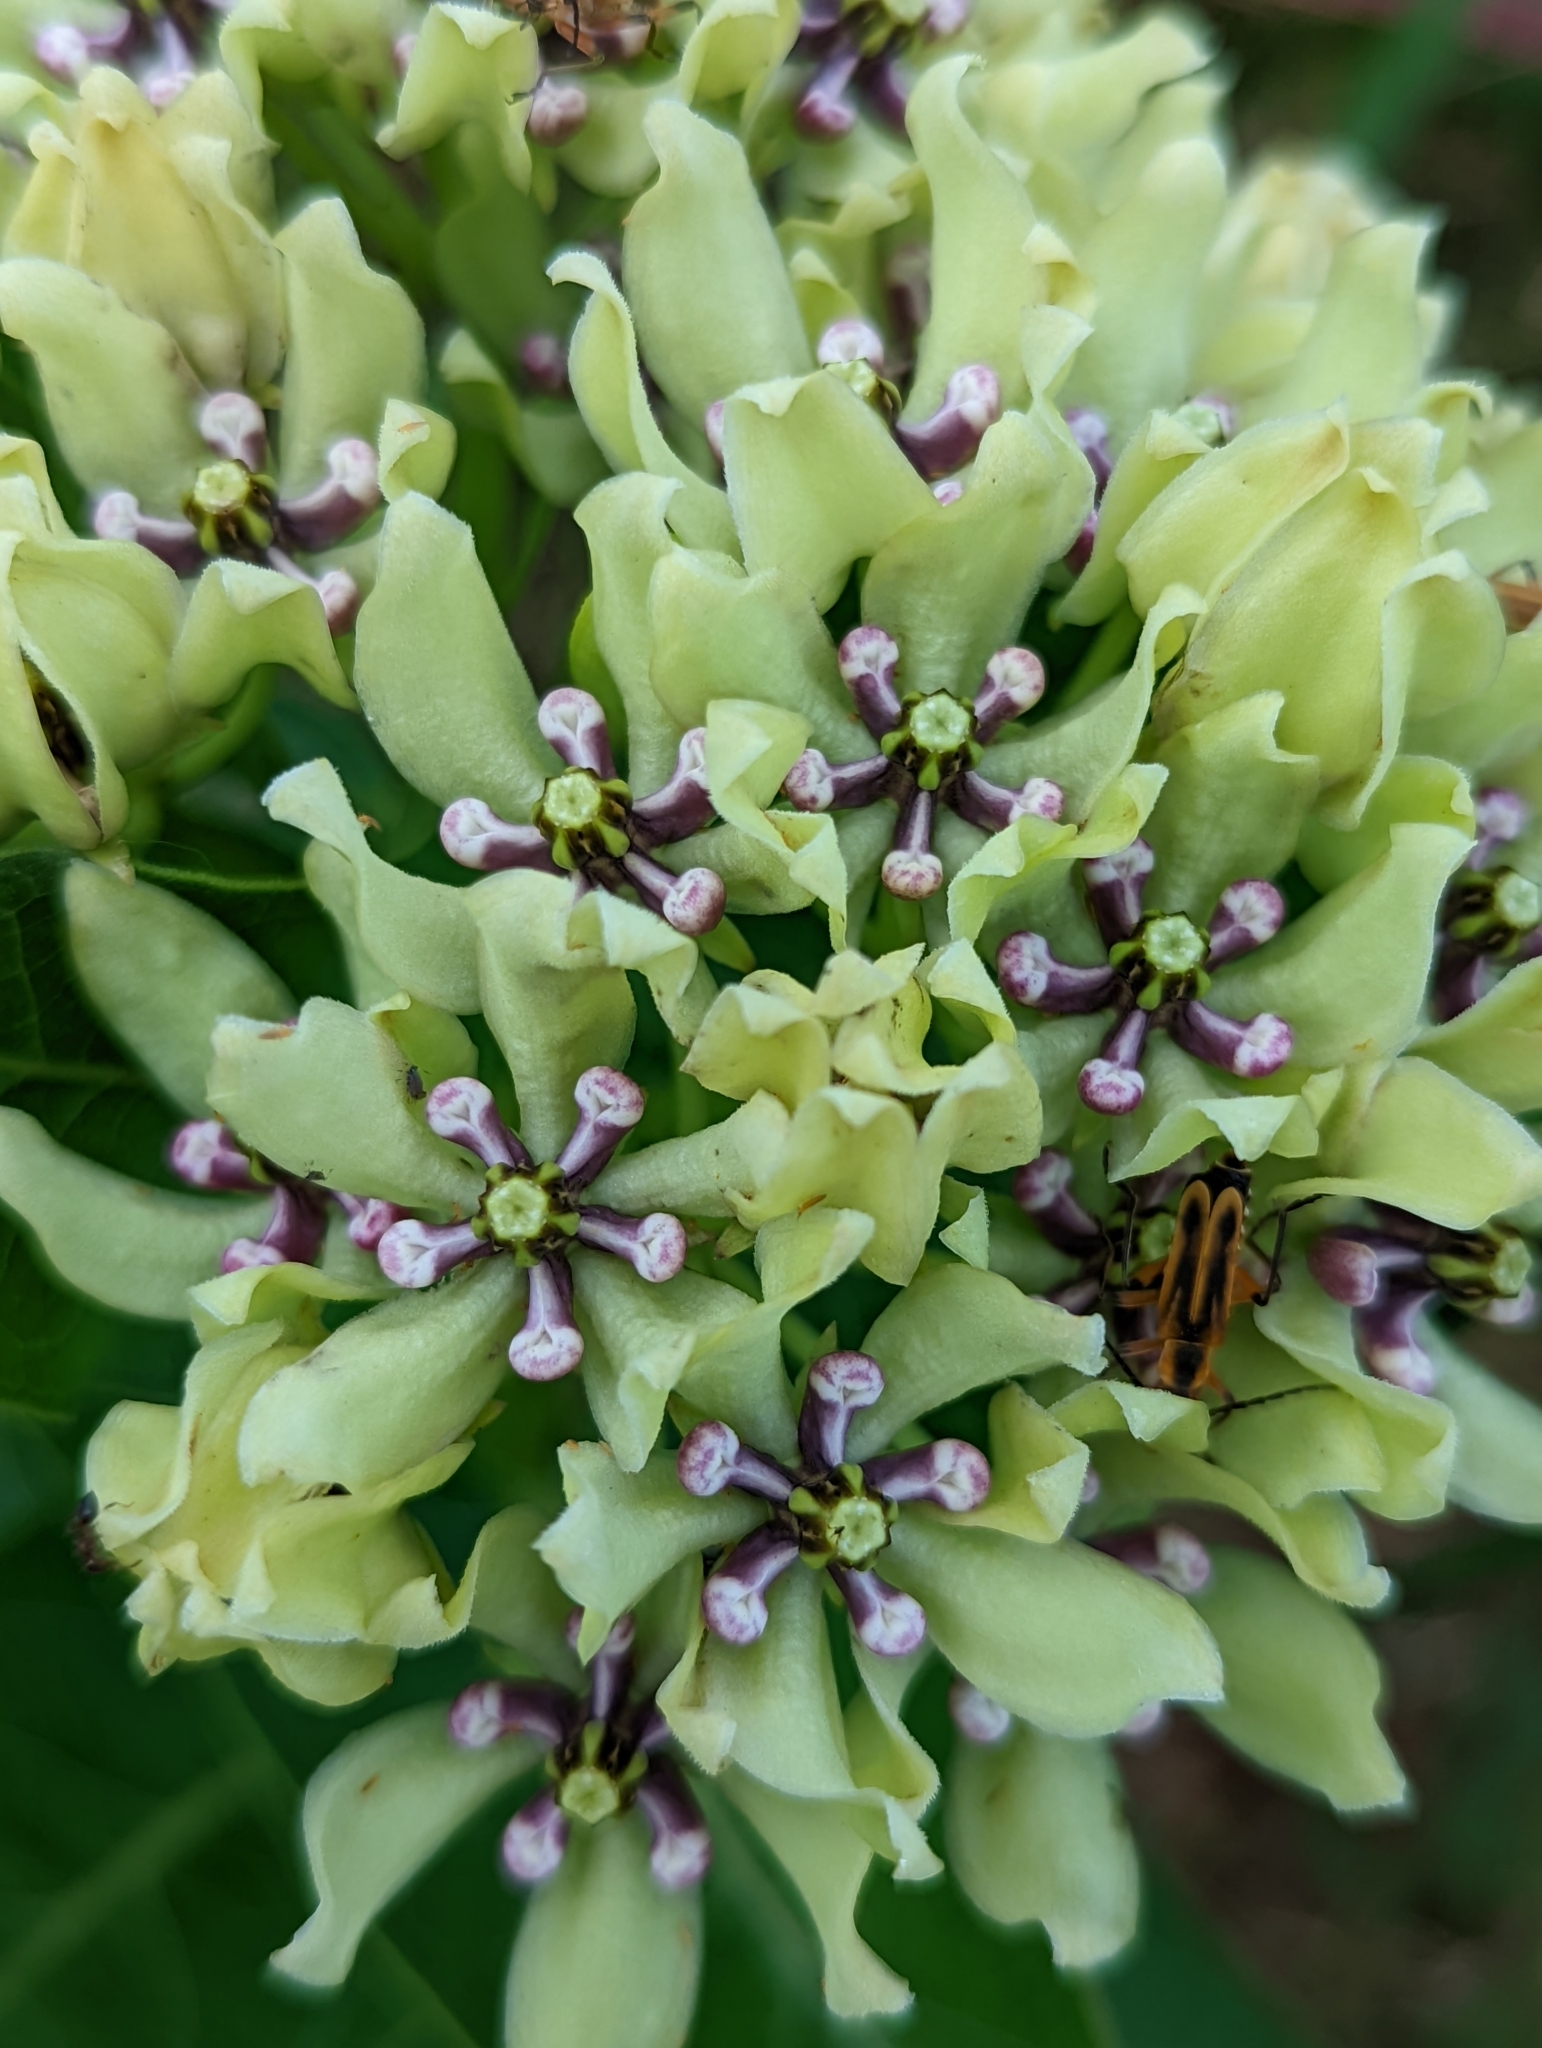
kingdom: Plantae
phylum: Tracheophyta
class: Magnoliopsida
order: Gentianales
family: Apocynaceae
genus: Asclepias
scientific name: Asclepias viridis
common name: Antelope-horns
